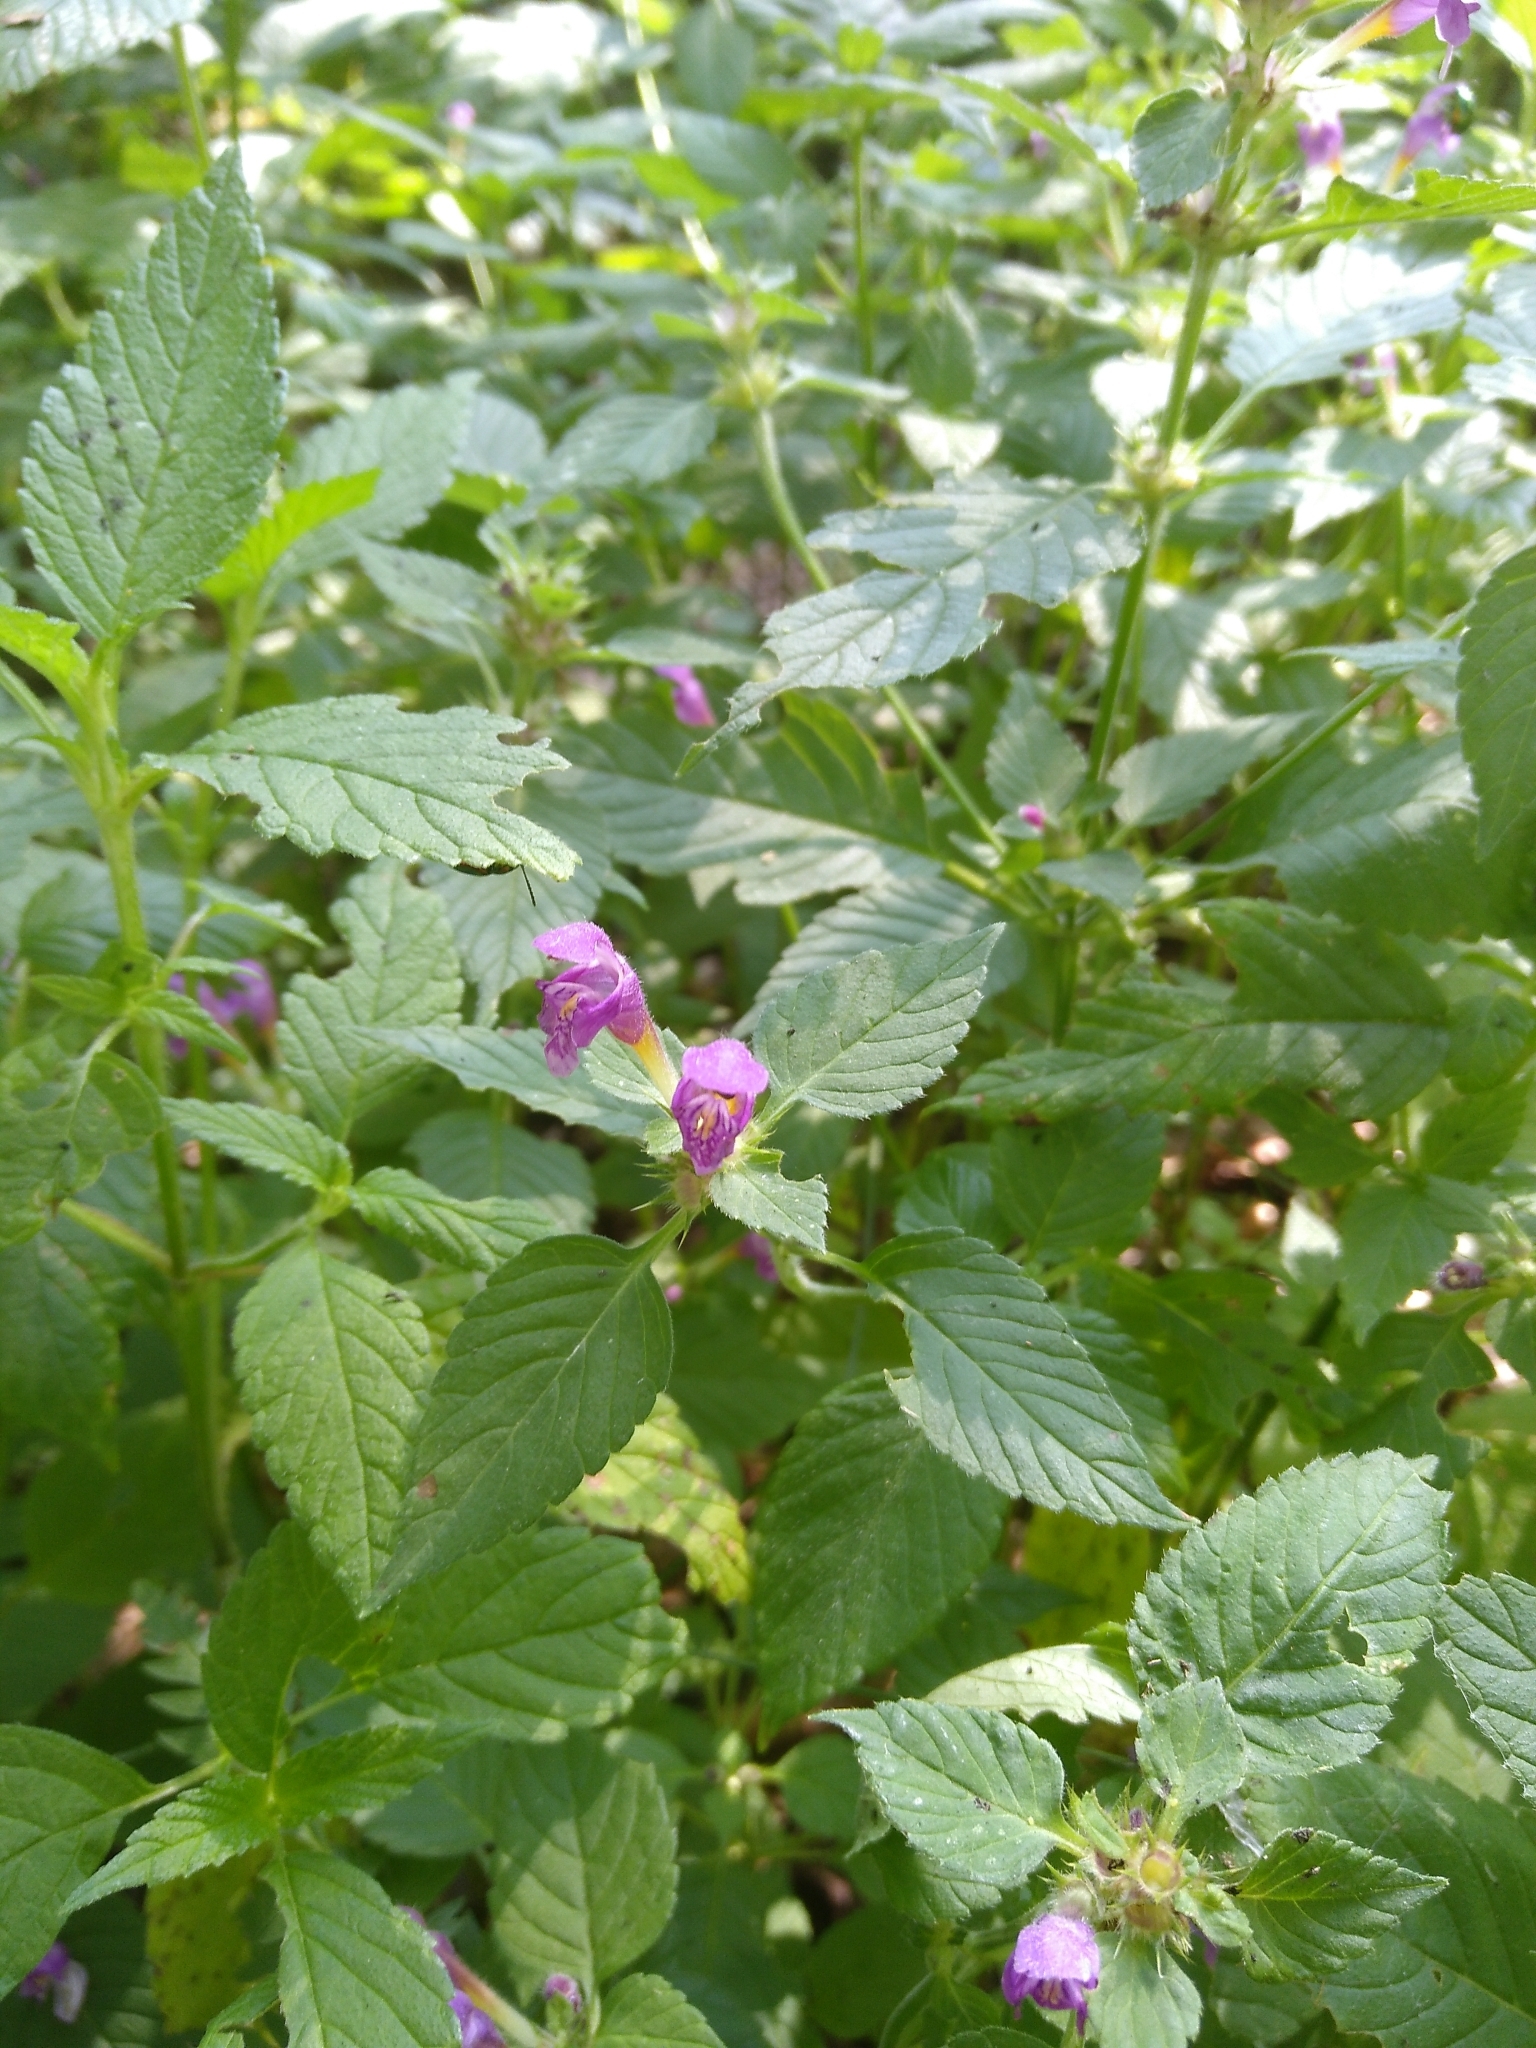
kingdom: Plantae
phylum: Tracheophyta
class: Magnoliopsida
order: Lamiales
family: Lamiaceae
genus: Galeopsis
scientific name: Galeopsis pubescens
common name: Downy hemp-nettle
